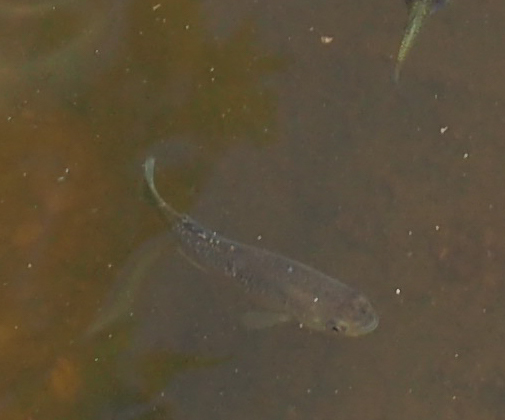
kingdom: Animalia
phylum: Chordata
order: Cyprinodontiformes
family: Fundulidae
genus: Fundulus
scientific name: Fundulus heteroclitus
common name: Mummichog
